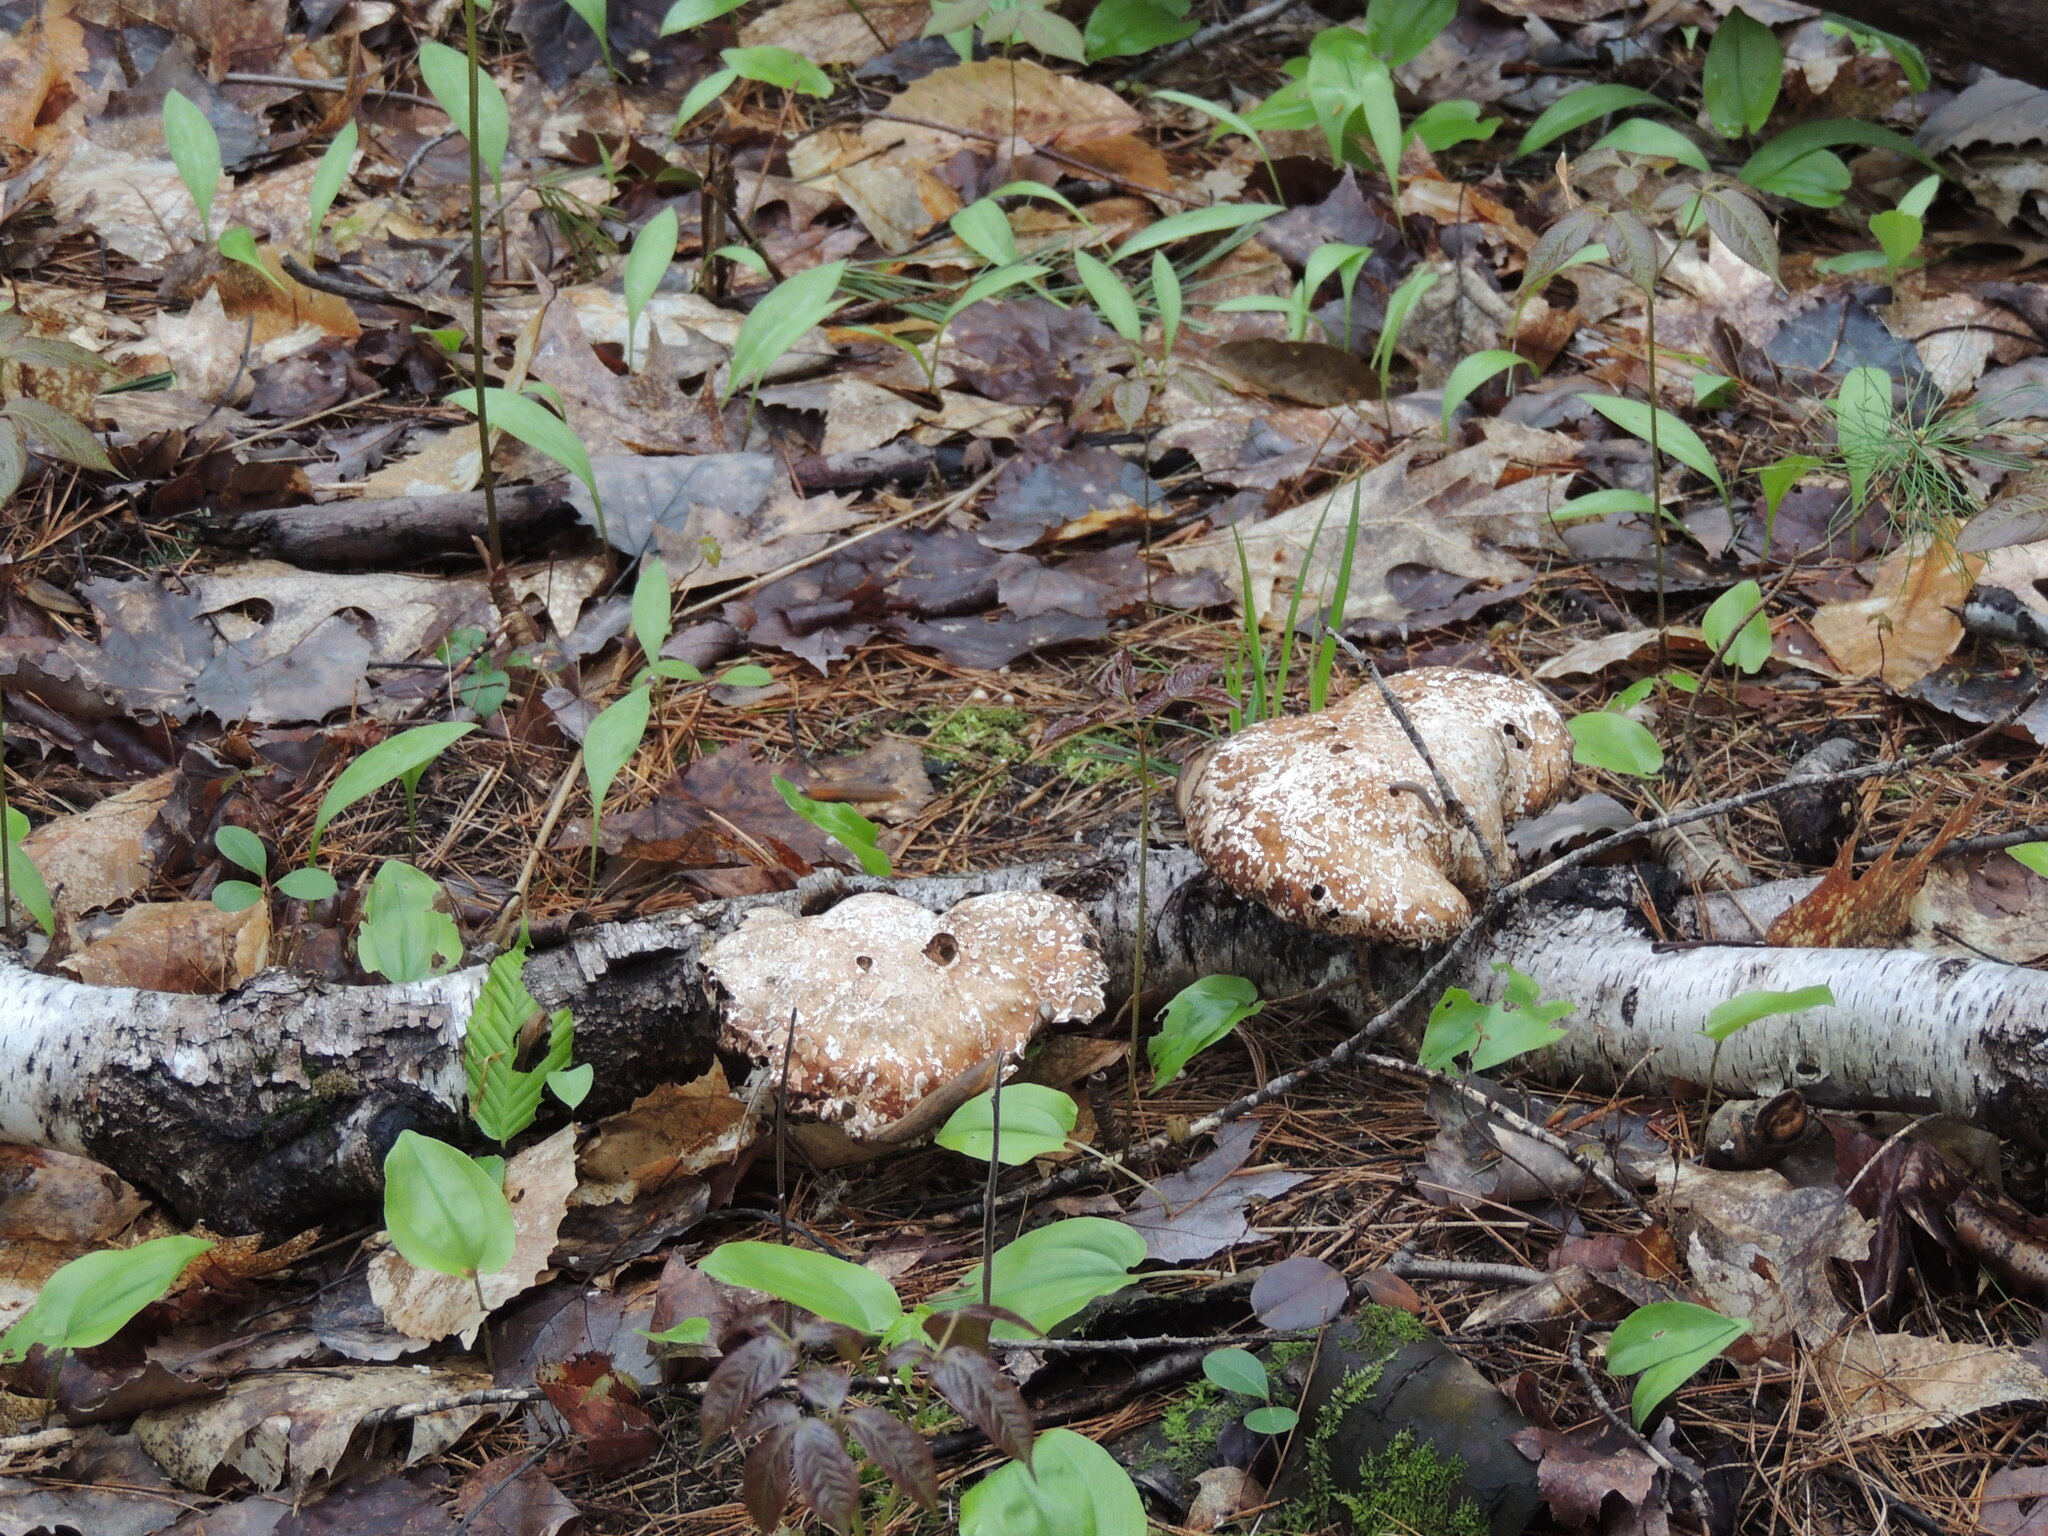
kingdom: Fungi
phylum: Basidiomycota
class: Agaricomycetes
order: Polyporales
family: Fomitopsidaceae
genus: Fomitopsis
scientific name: Fomitopsis betulina
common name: Birch polypore
